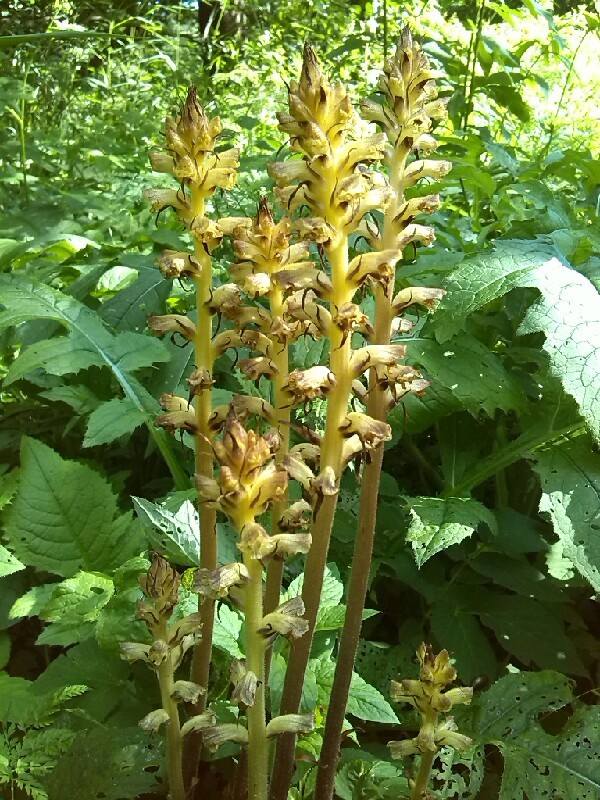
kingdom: Plantae
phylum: Tracheophyta
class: Magnoliopsida
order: Lamiales
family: Orobanchaceae
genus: Orobanche
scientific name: Orobanche reticulata
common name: Thistle broomrape
